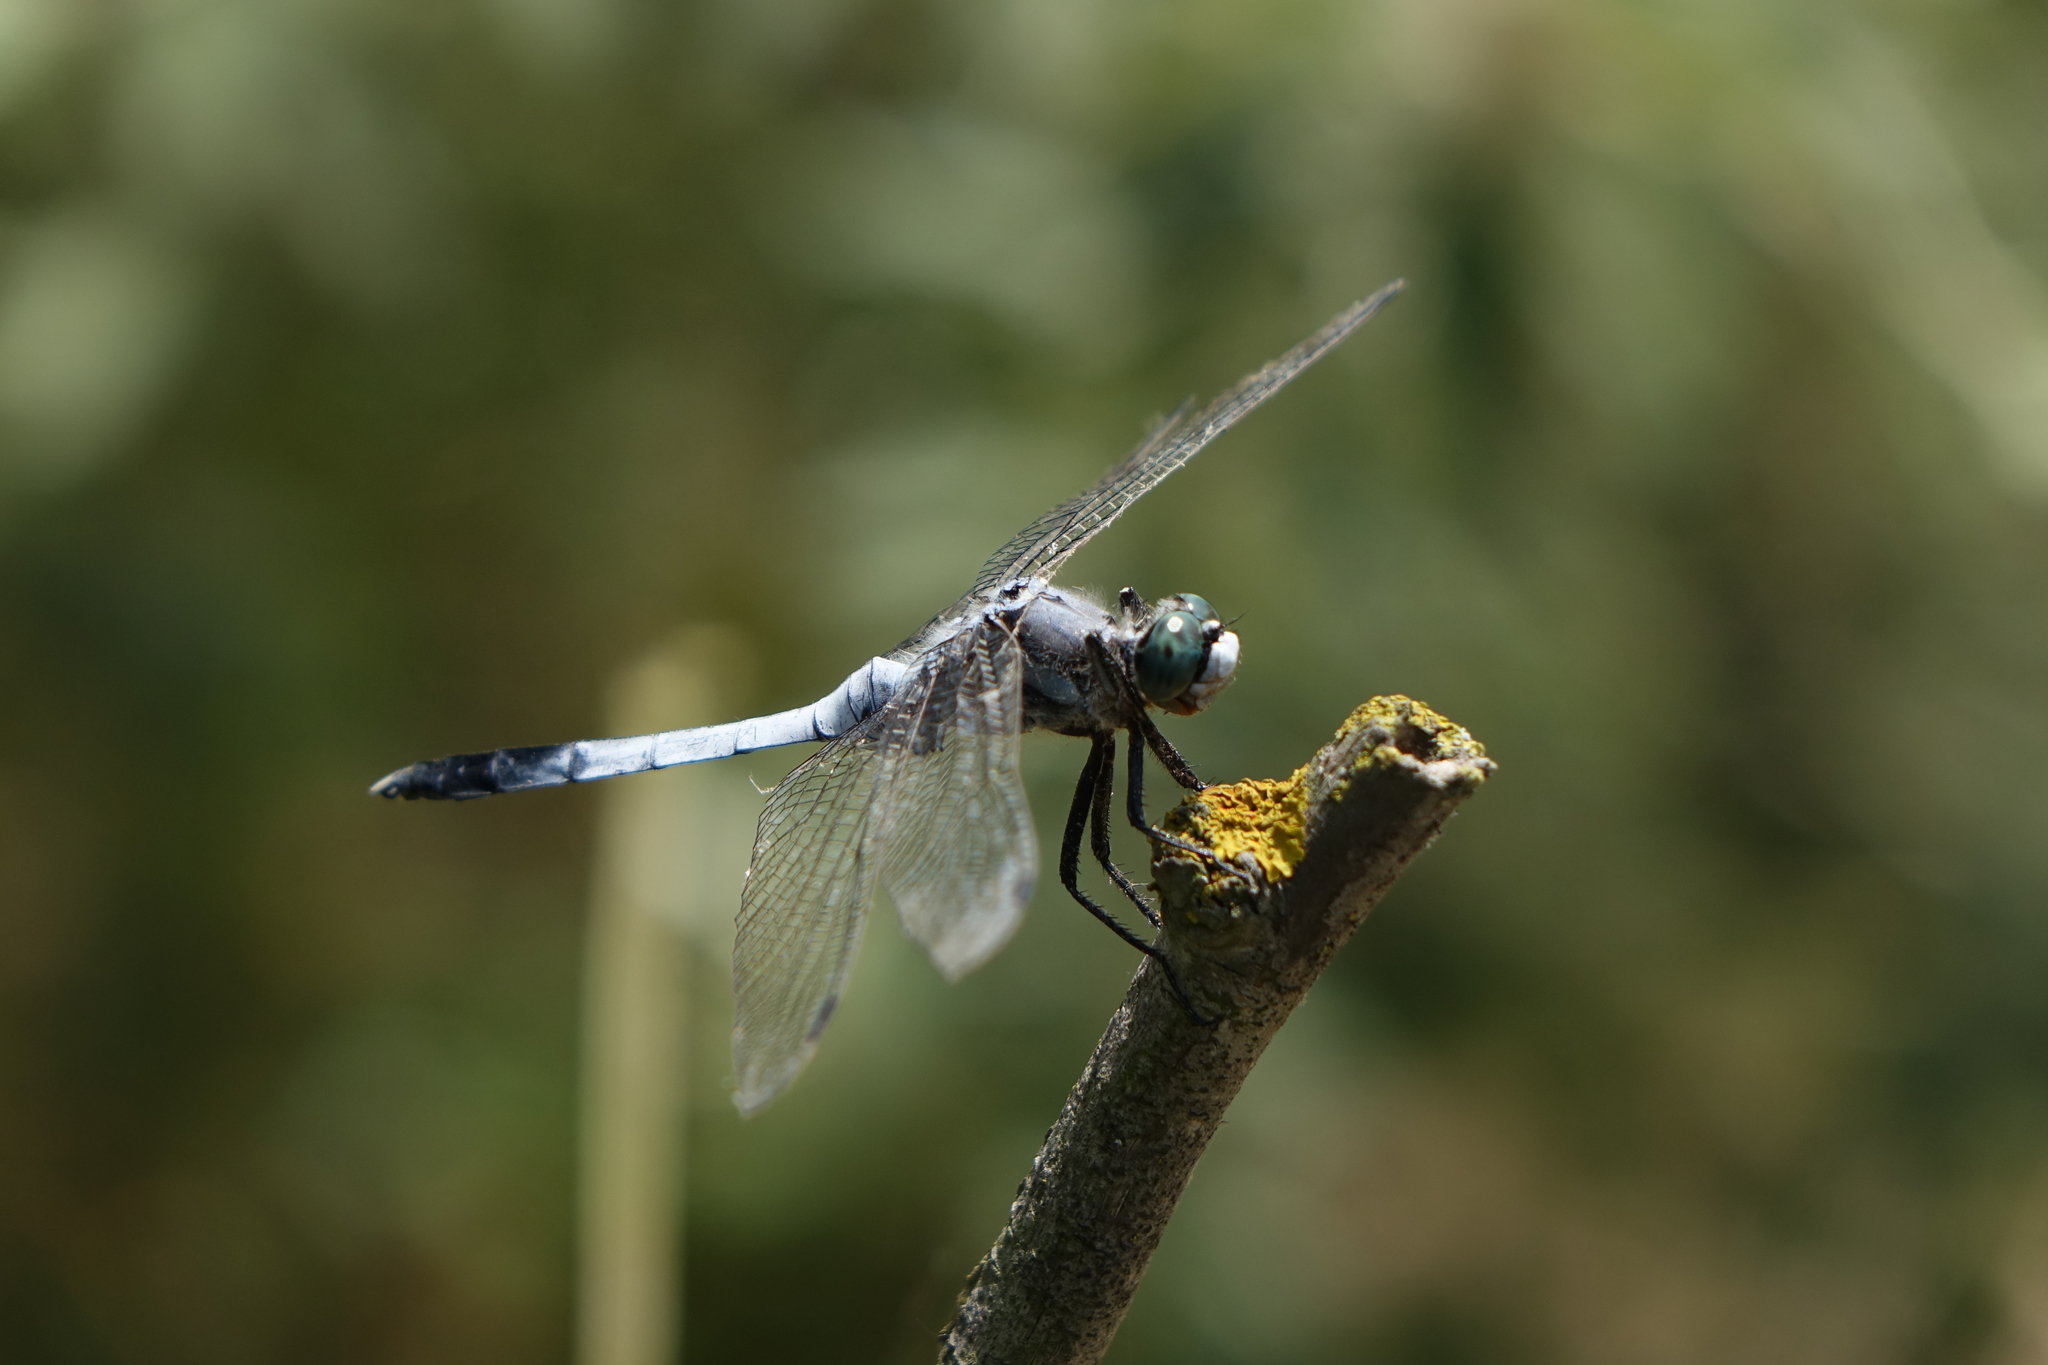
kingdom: Animalia
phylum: Arthropoda
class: Insecta
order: Odonata
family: Libellulidae
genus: Orthetrum
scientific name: Orthetrum albistylum
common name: White-tailed skimmer
